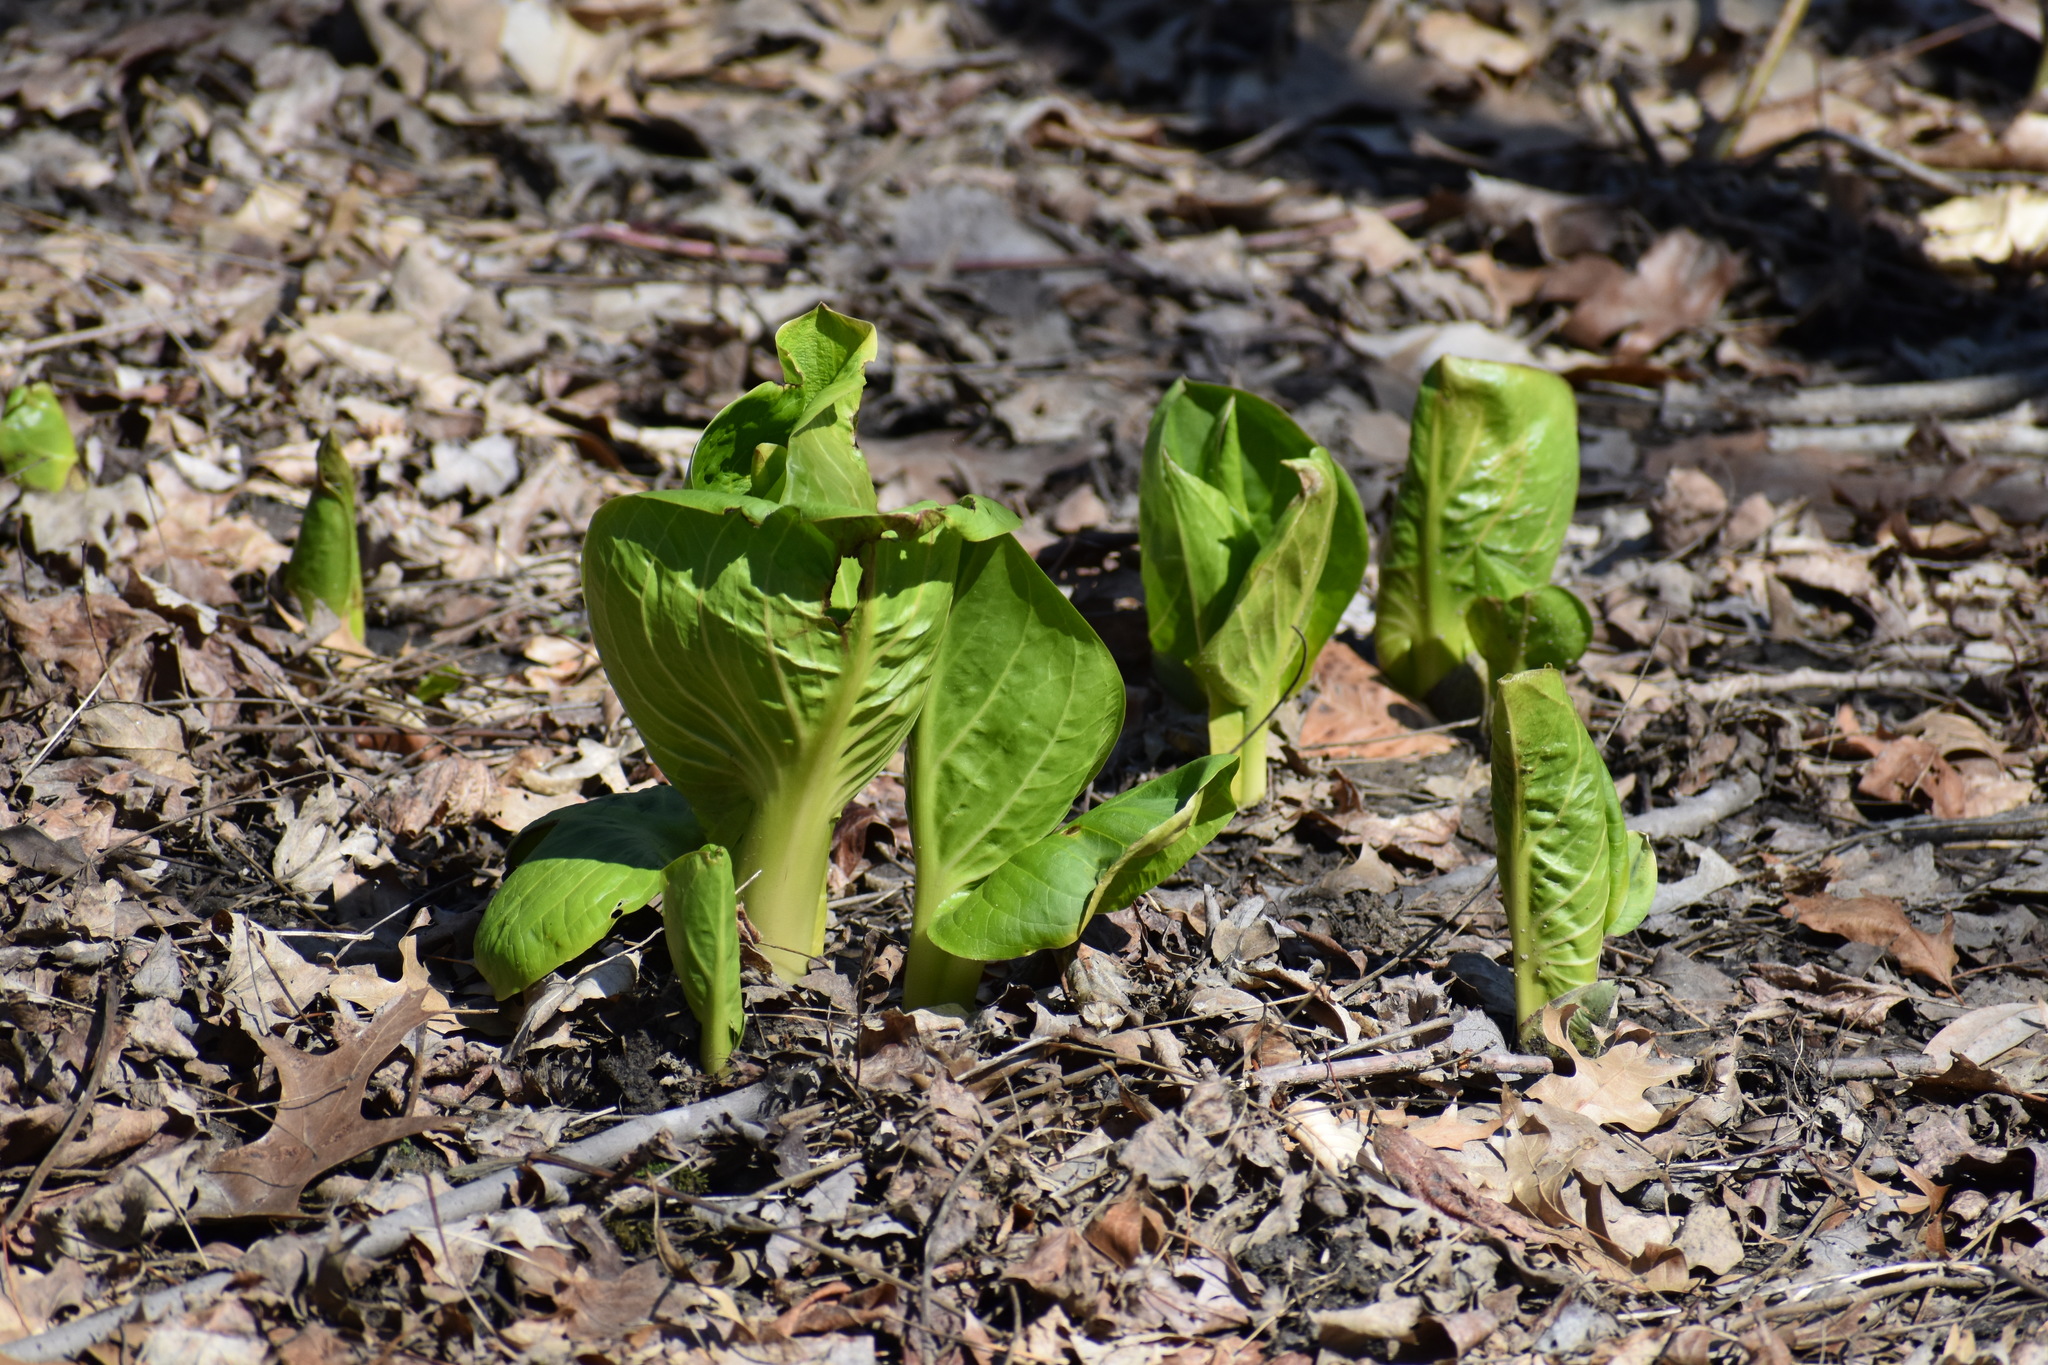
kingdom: Plantae
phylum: Tracheophyta
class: Liliopsida
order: Alismatales
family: Araceae
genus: Symplocarpus
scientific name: Symplocarpus foetidus
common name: Eastern skunk cabbage
